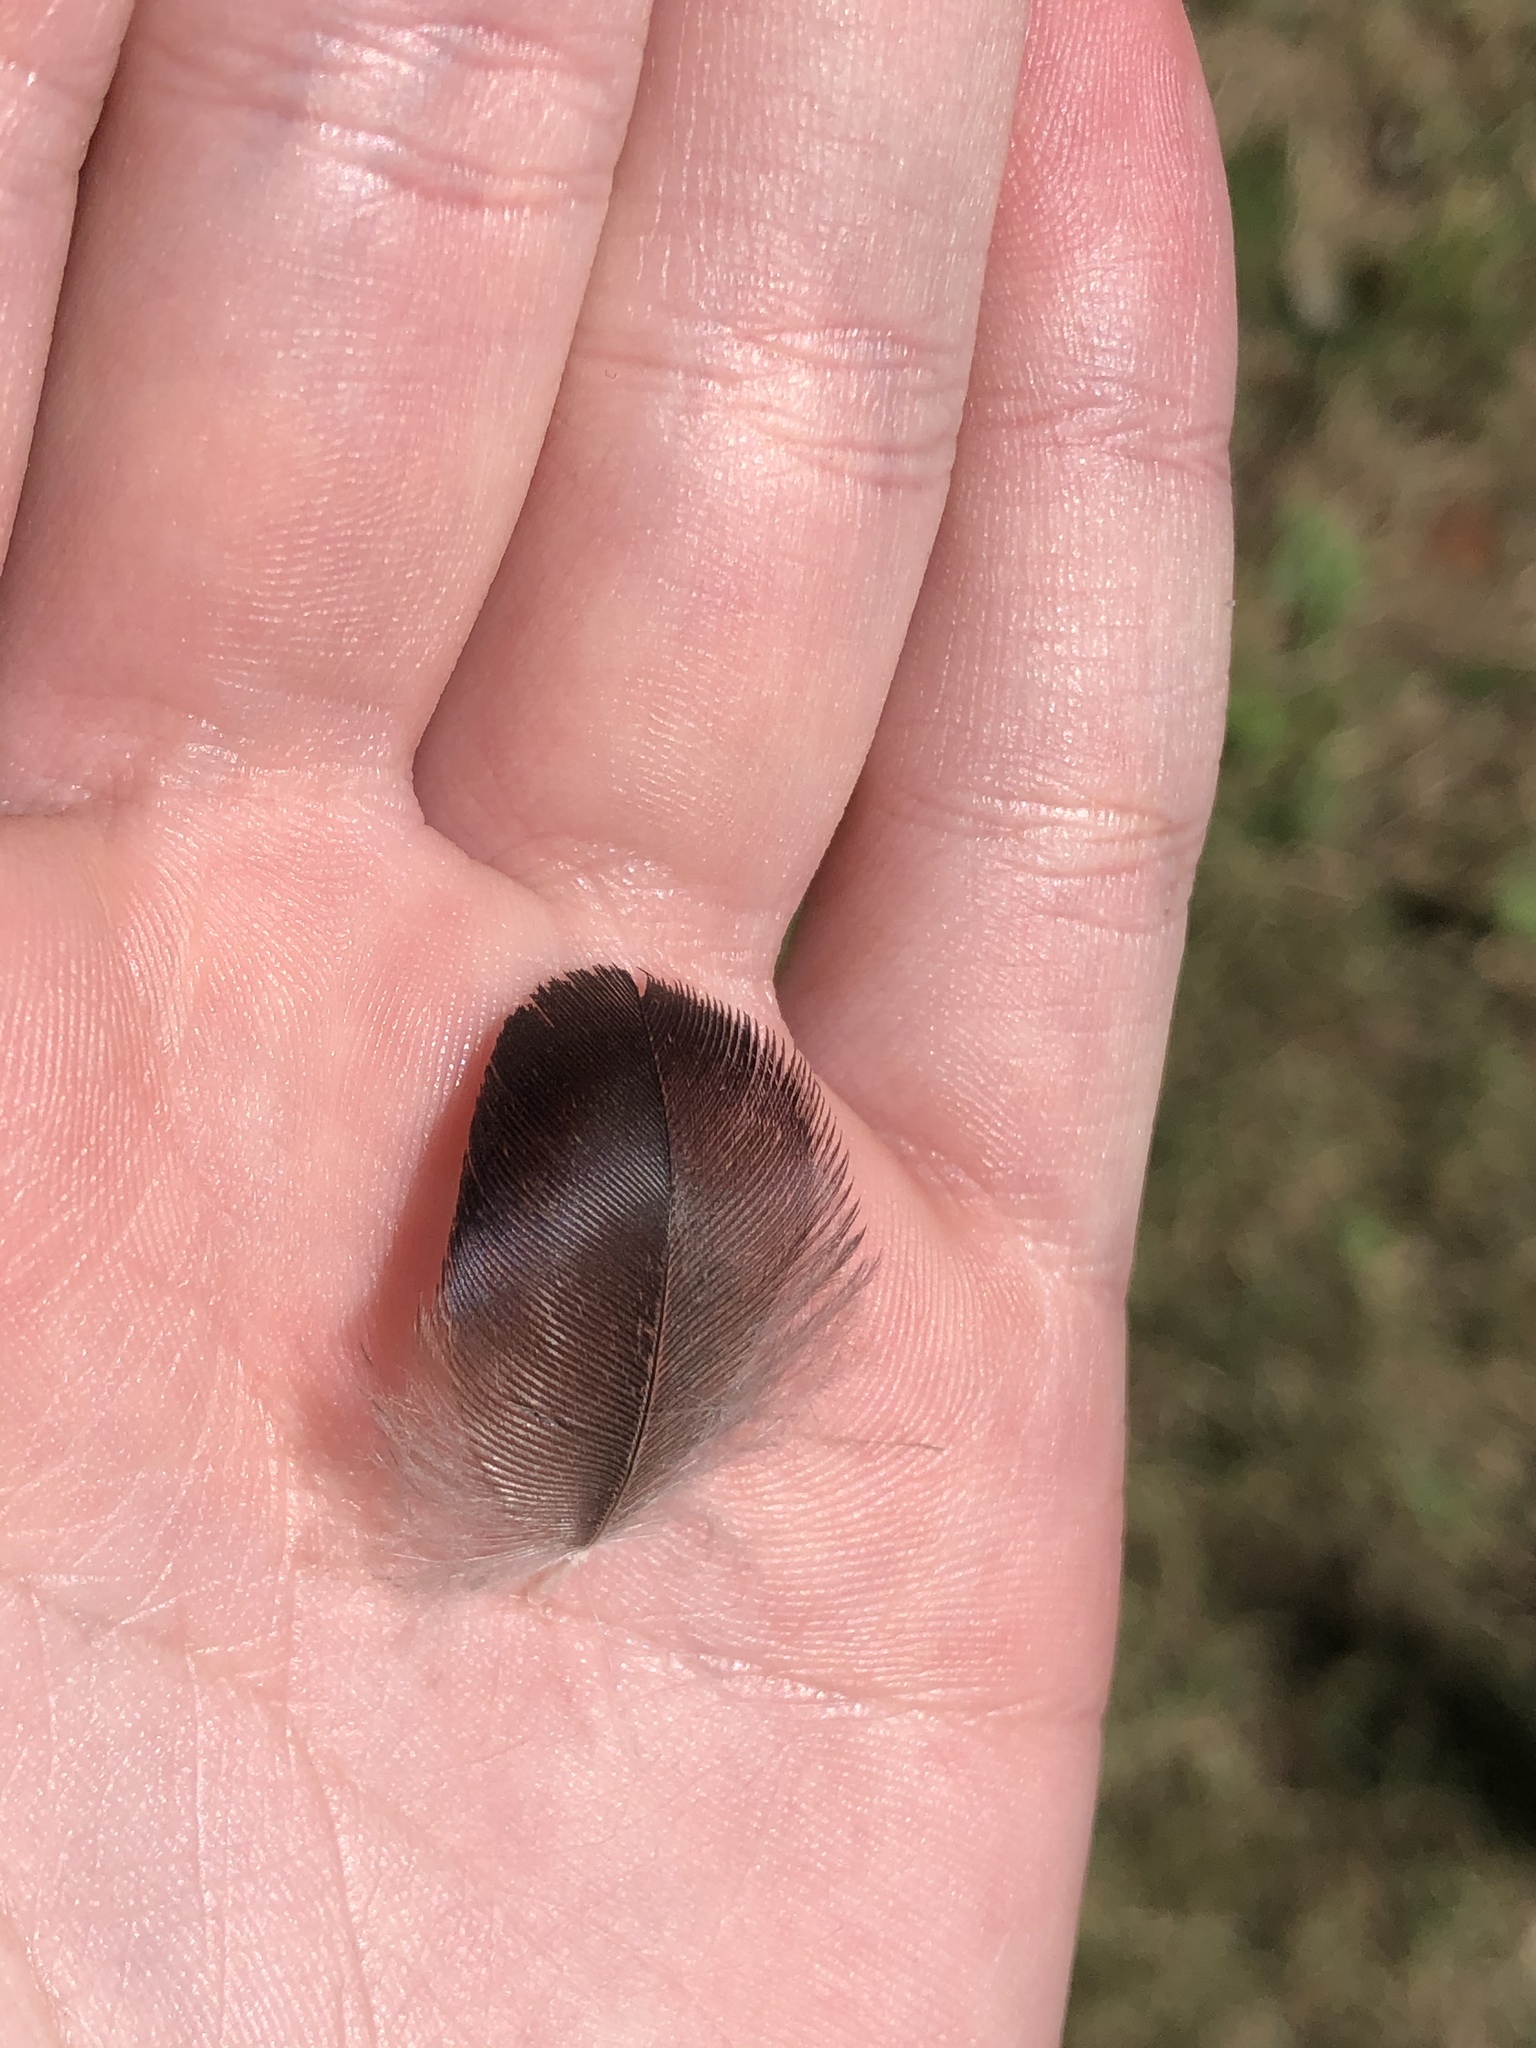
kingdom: Animalia
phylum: Chordata
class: Aves
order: Passeriformes
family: Corvidae
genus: Corvus
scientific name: Corvus brachyrhynchos
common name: American crow
